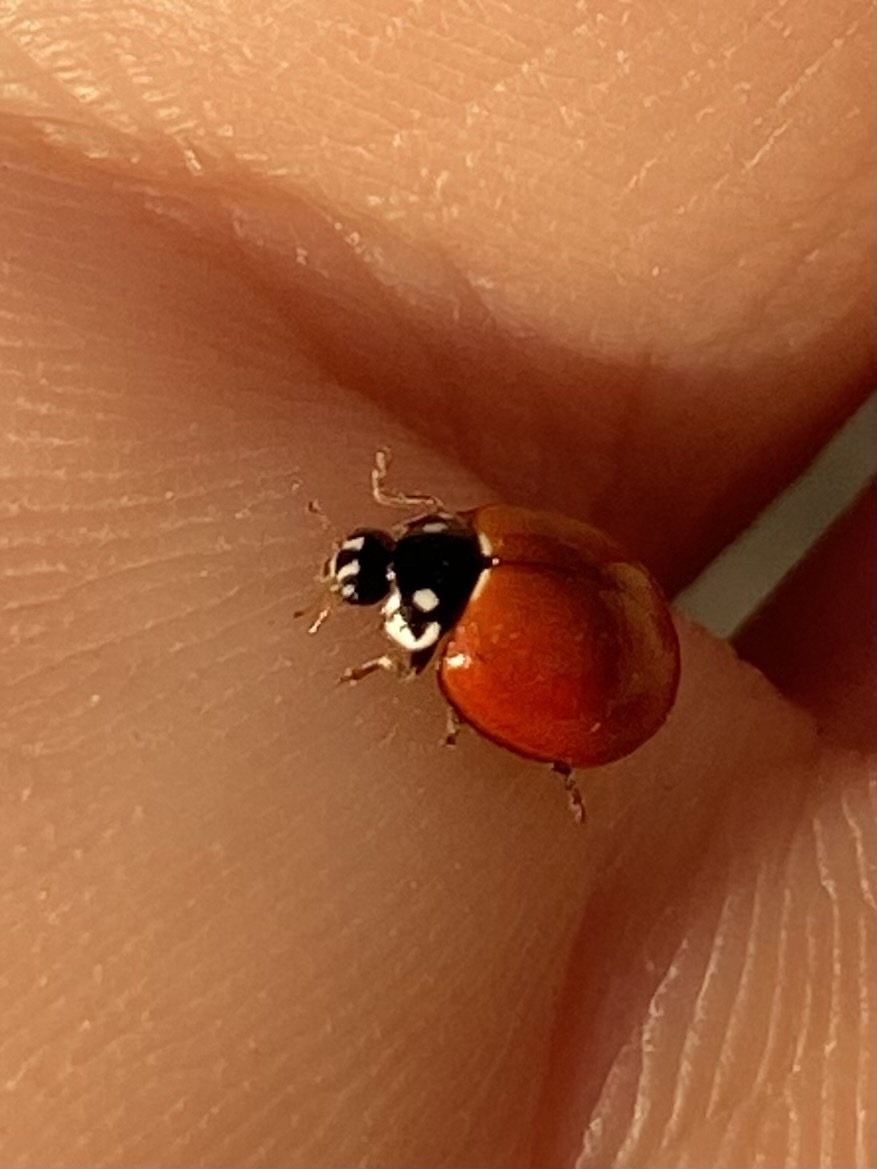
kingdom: Animalia
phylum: Arthropoda
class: Insecta
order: Coleoptera
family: Coccinellidae
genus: Cycloneda
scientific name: Cycloneda sanguinea
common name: Ladybird beetle
